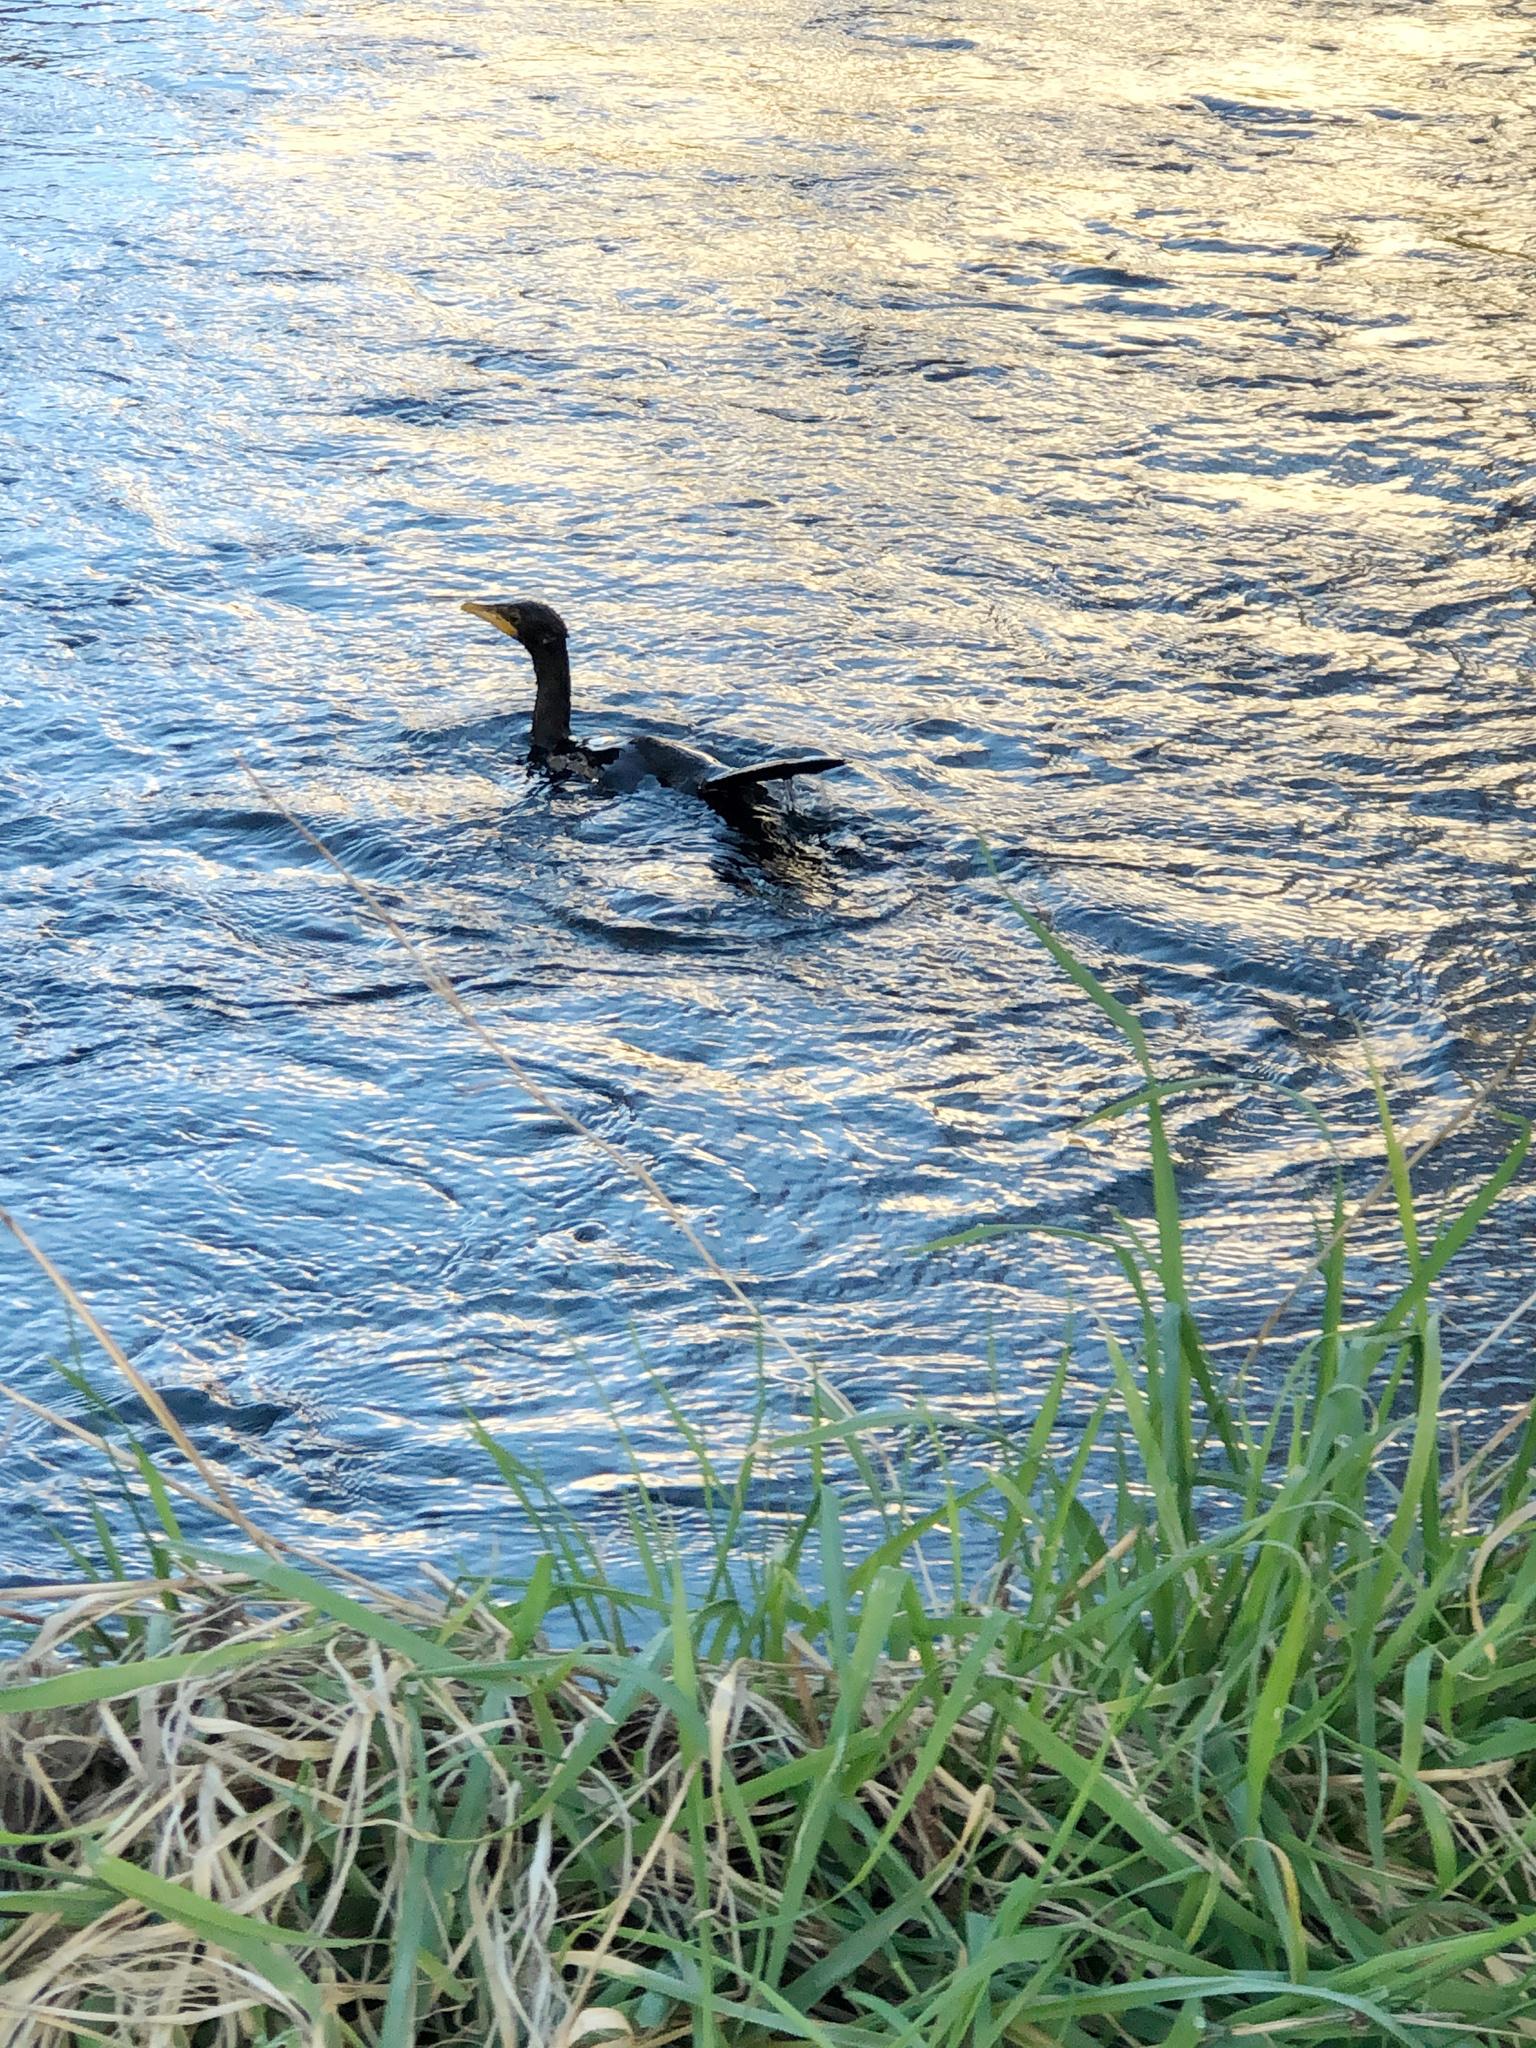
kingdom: Animalia
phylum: Chordata
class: Aves
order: Suliformes
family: Phalacrocoracidae
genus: Microcarbo
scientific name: Microcarbo melanoleucos
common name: Little pied cormorant
